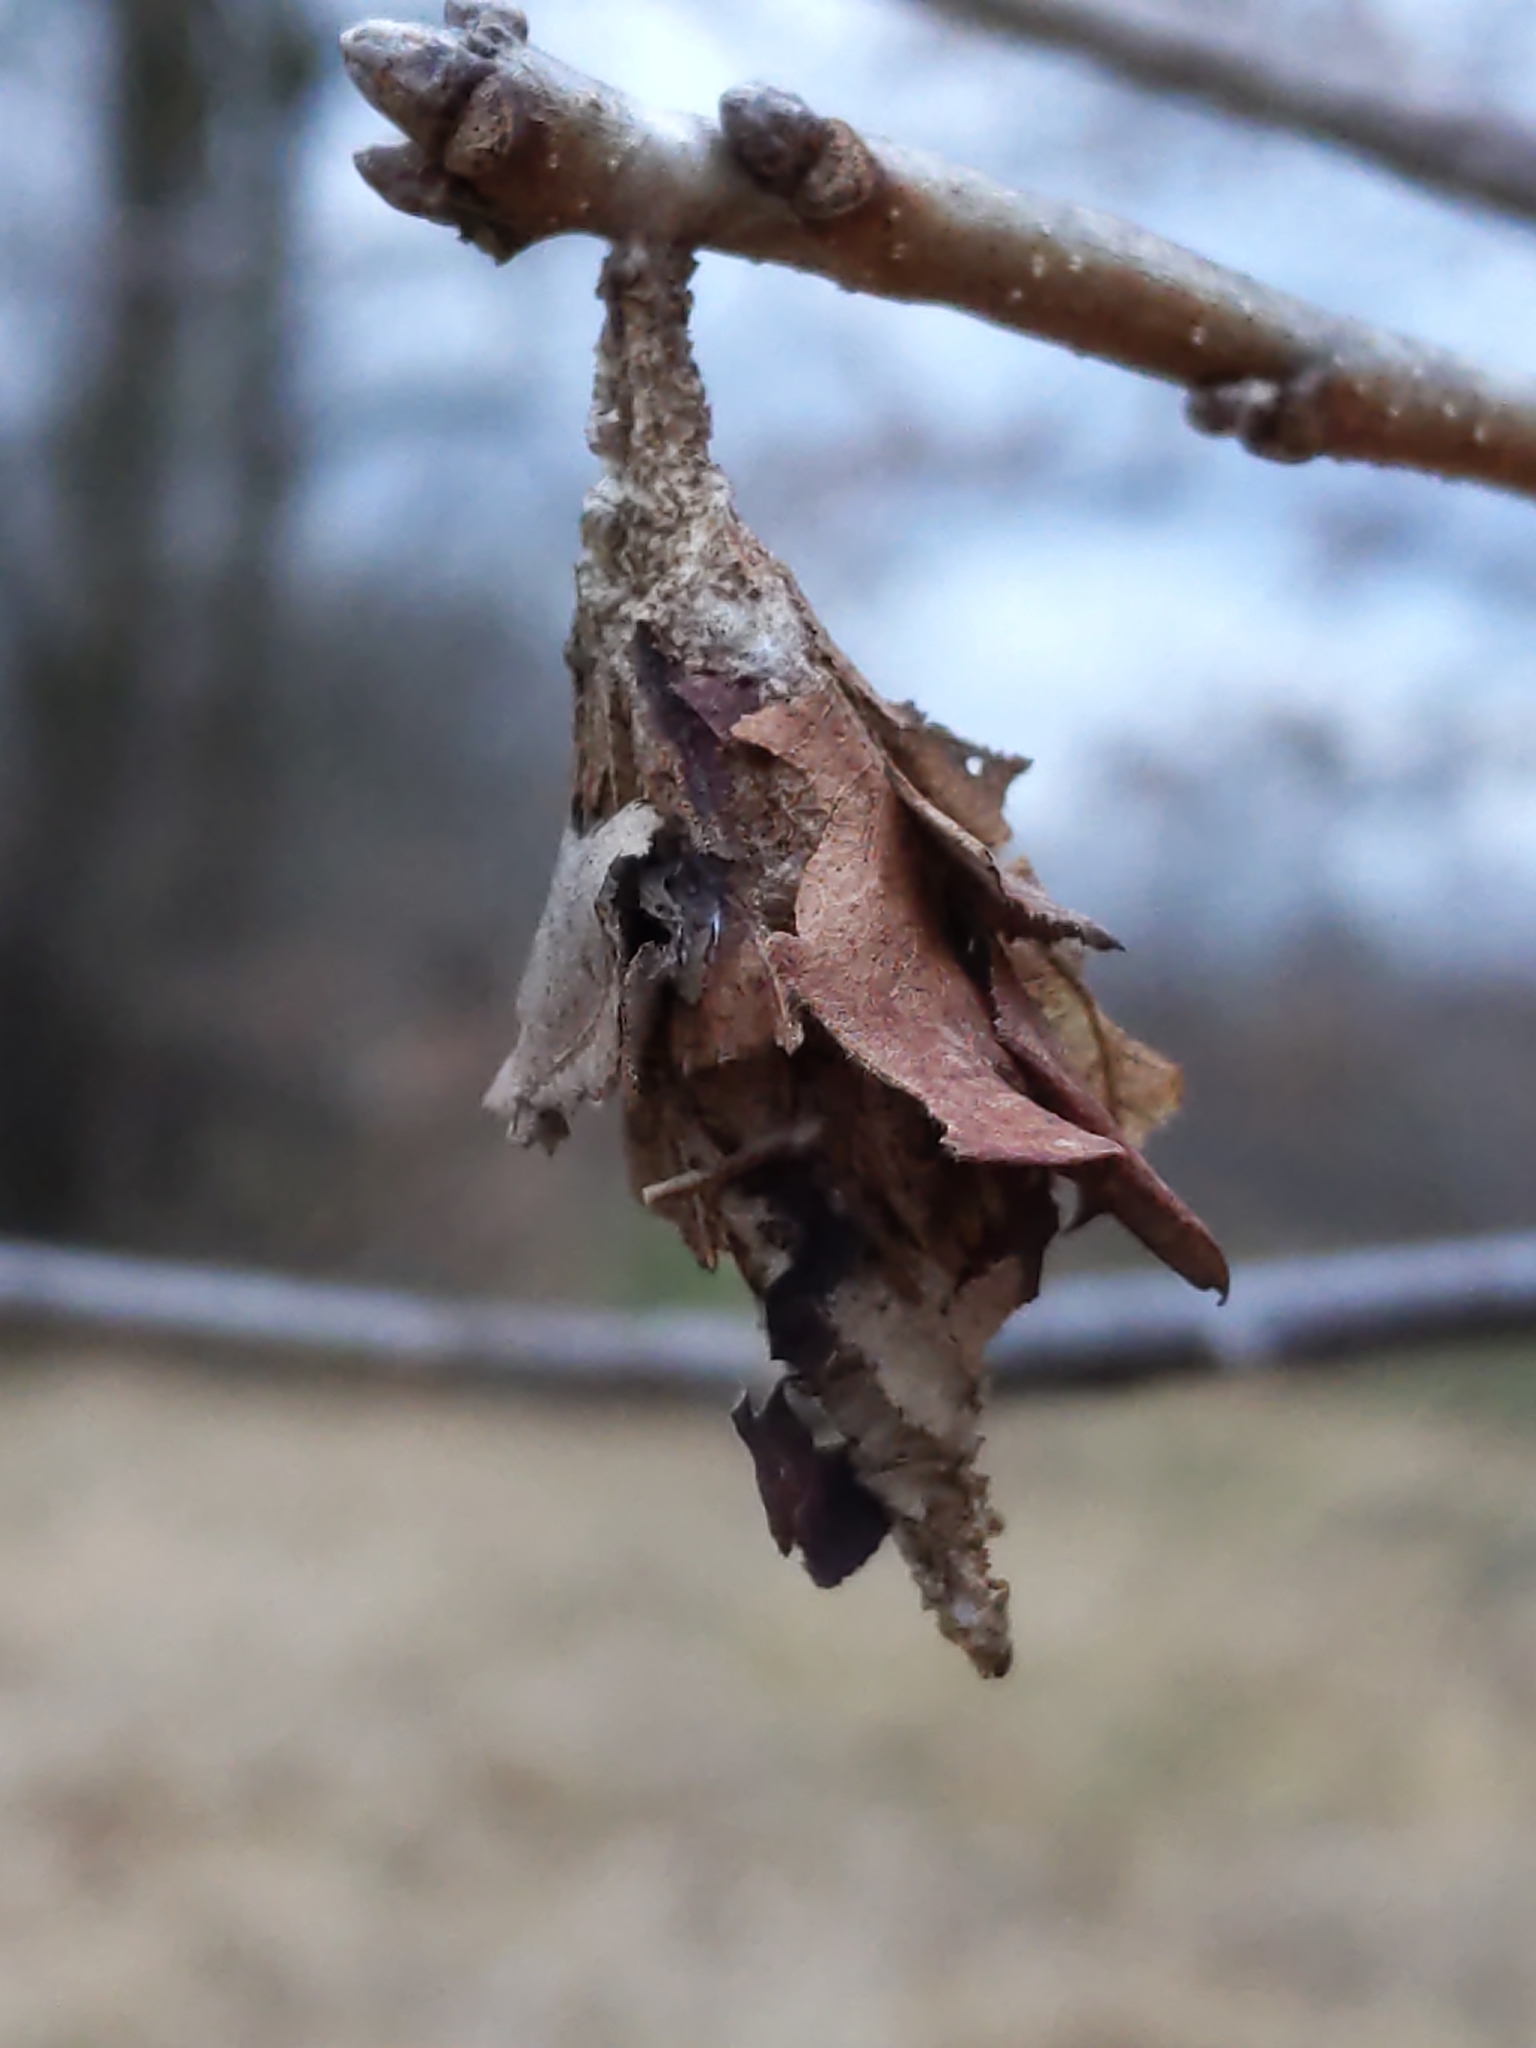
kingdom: Animalia
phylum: Arthropoda
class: Insecta
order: Lepidoptera
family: Psychidae
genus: Thyridopteryx
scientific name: Thyridopteryx ephemeraeformis
